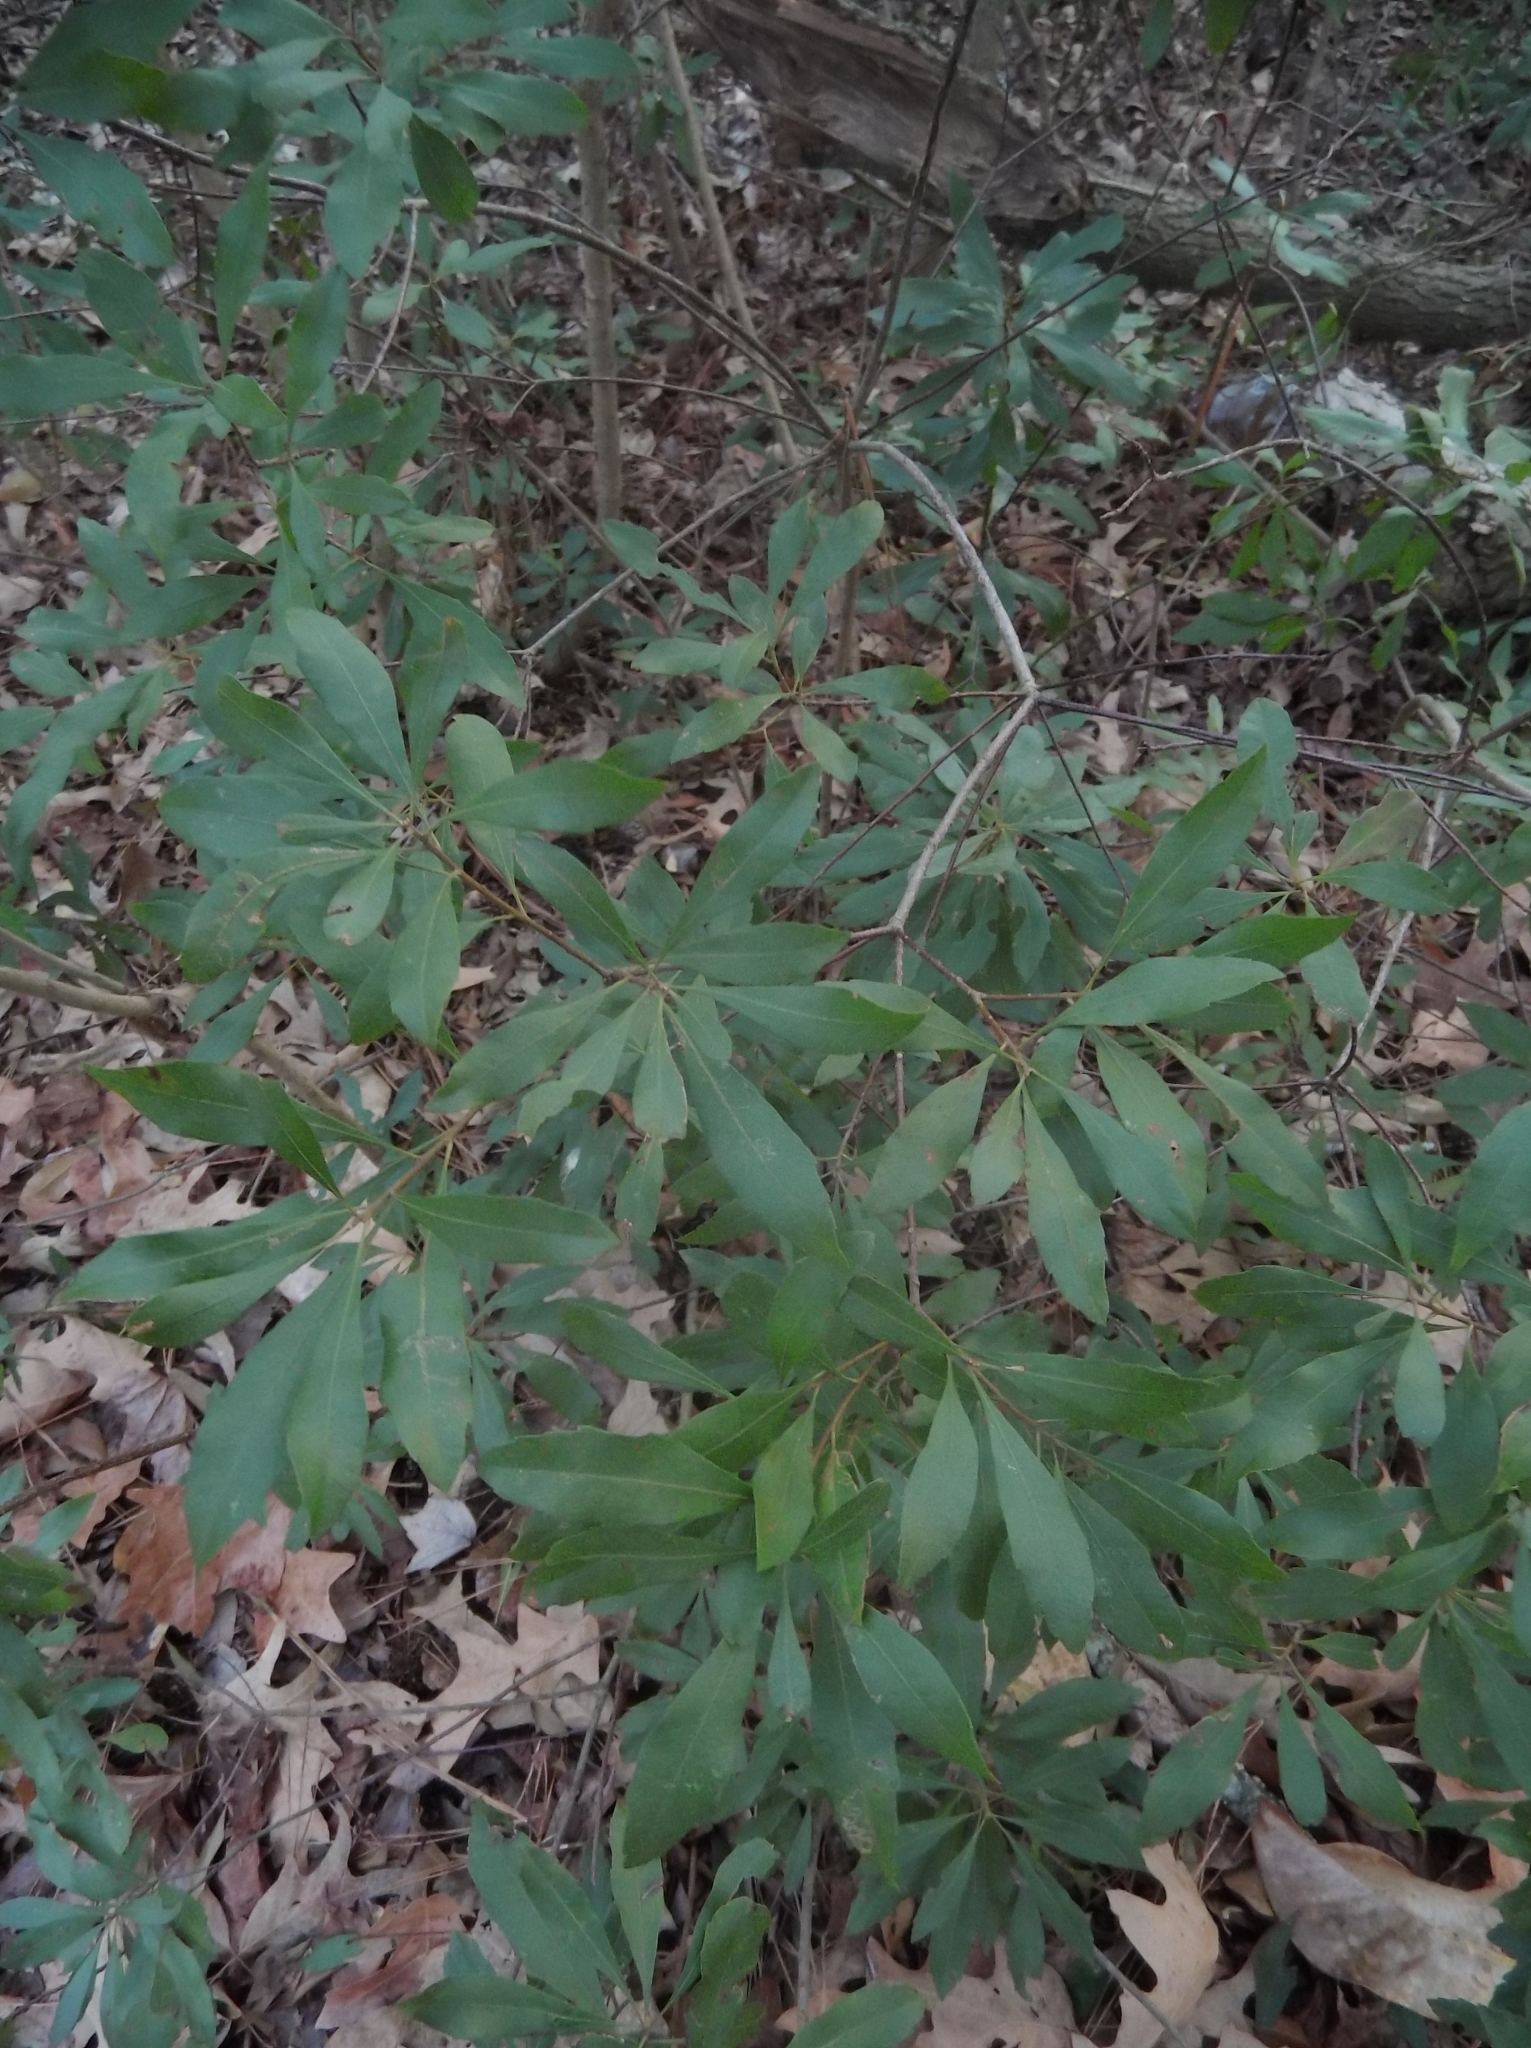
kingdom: Plantae
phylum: Tracheophyta
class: Magnoliopsida
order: Fagales
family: Myricaceae
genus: Morella
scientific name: Morella cerifera
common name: Wax myrtle
